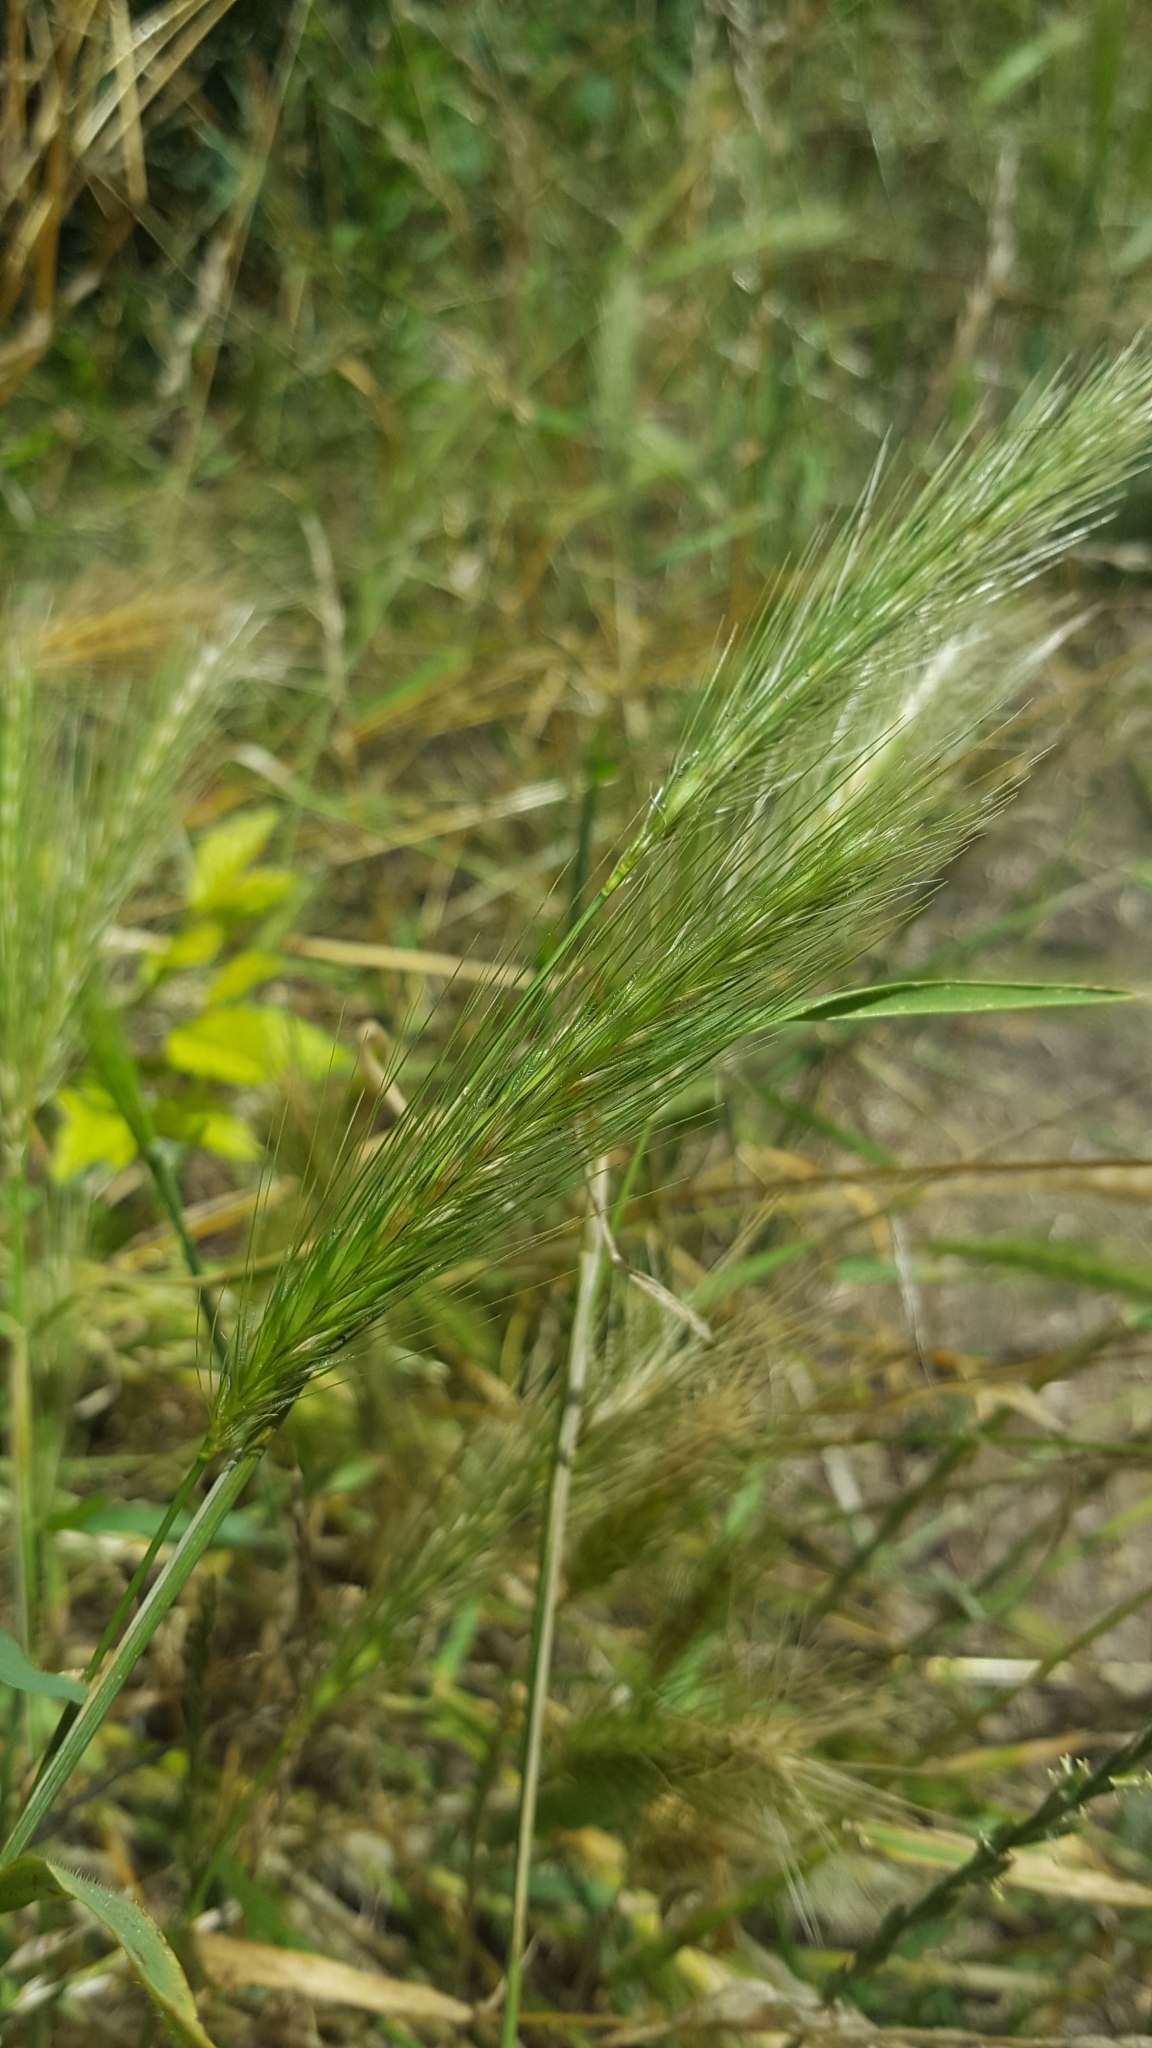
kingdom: Plantae
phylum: Tracheophyta
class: Liliopsida
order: Poales
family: Poaceae
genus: Hordeum
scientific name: Hordeum murinum
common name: Wall barley
